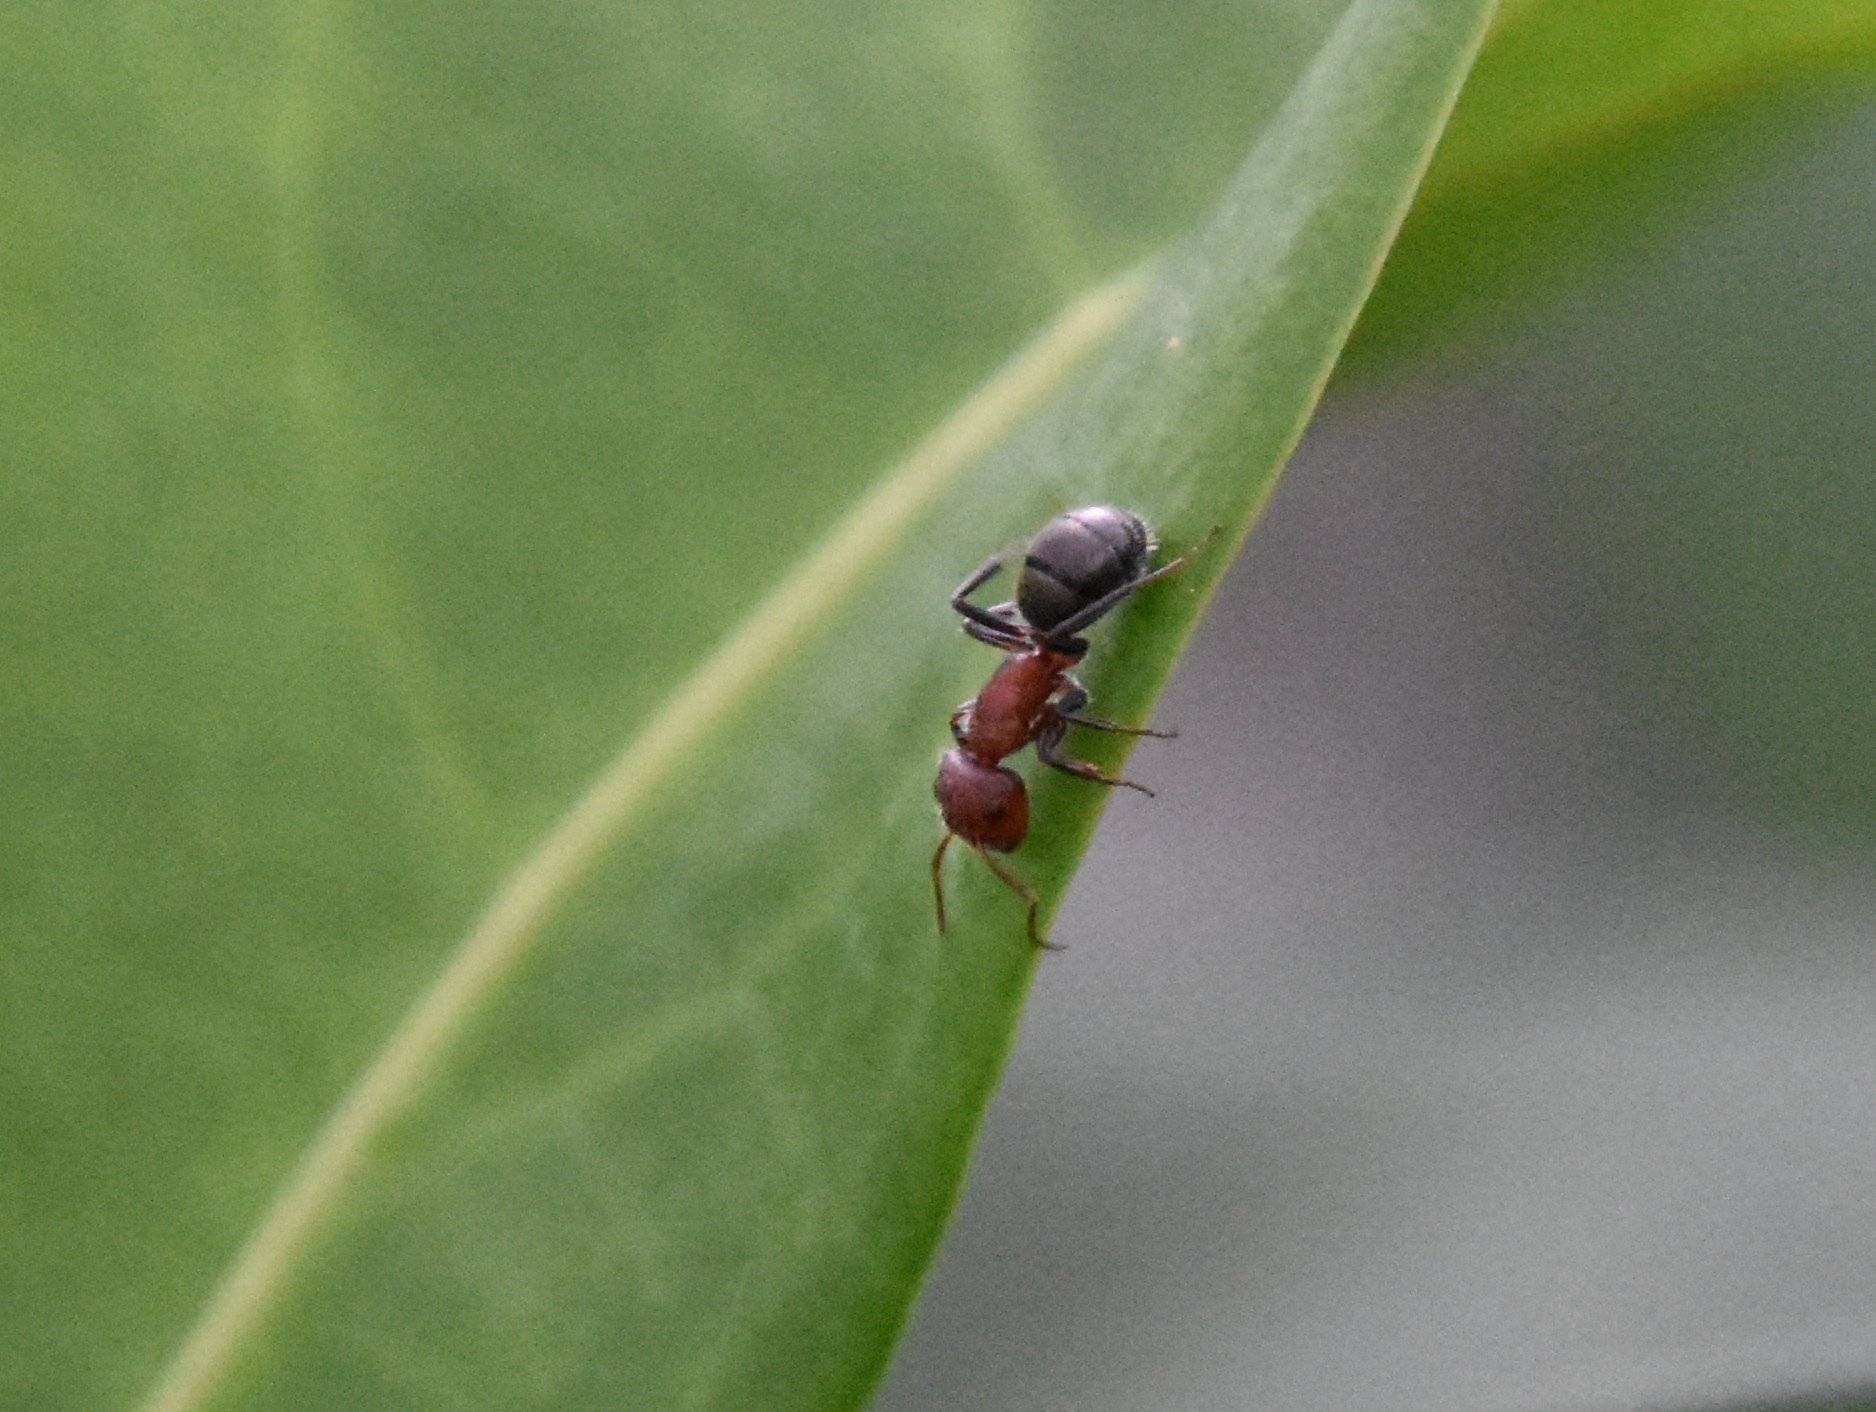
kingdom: Animalia
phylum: Arthropoda
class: Insecta
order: Hymenoptera
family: Formicidae
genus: Camponotus
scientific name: Camponotus planatus
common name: Compact carpenter ant
